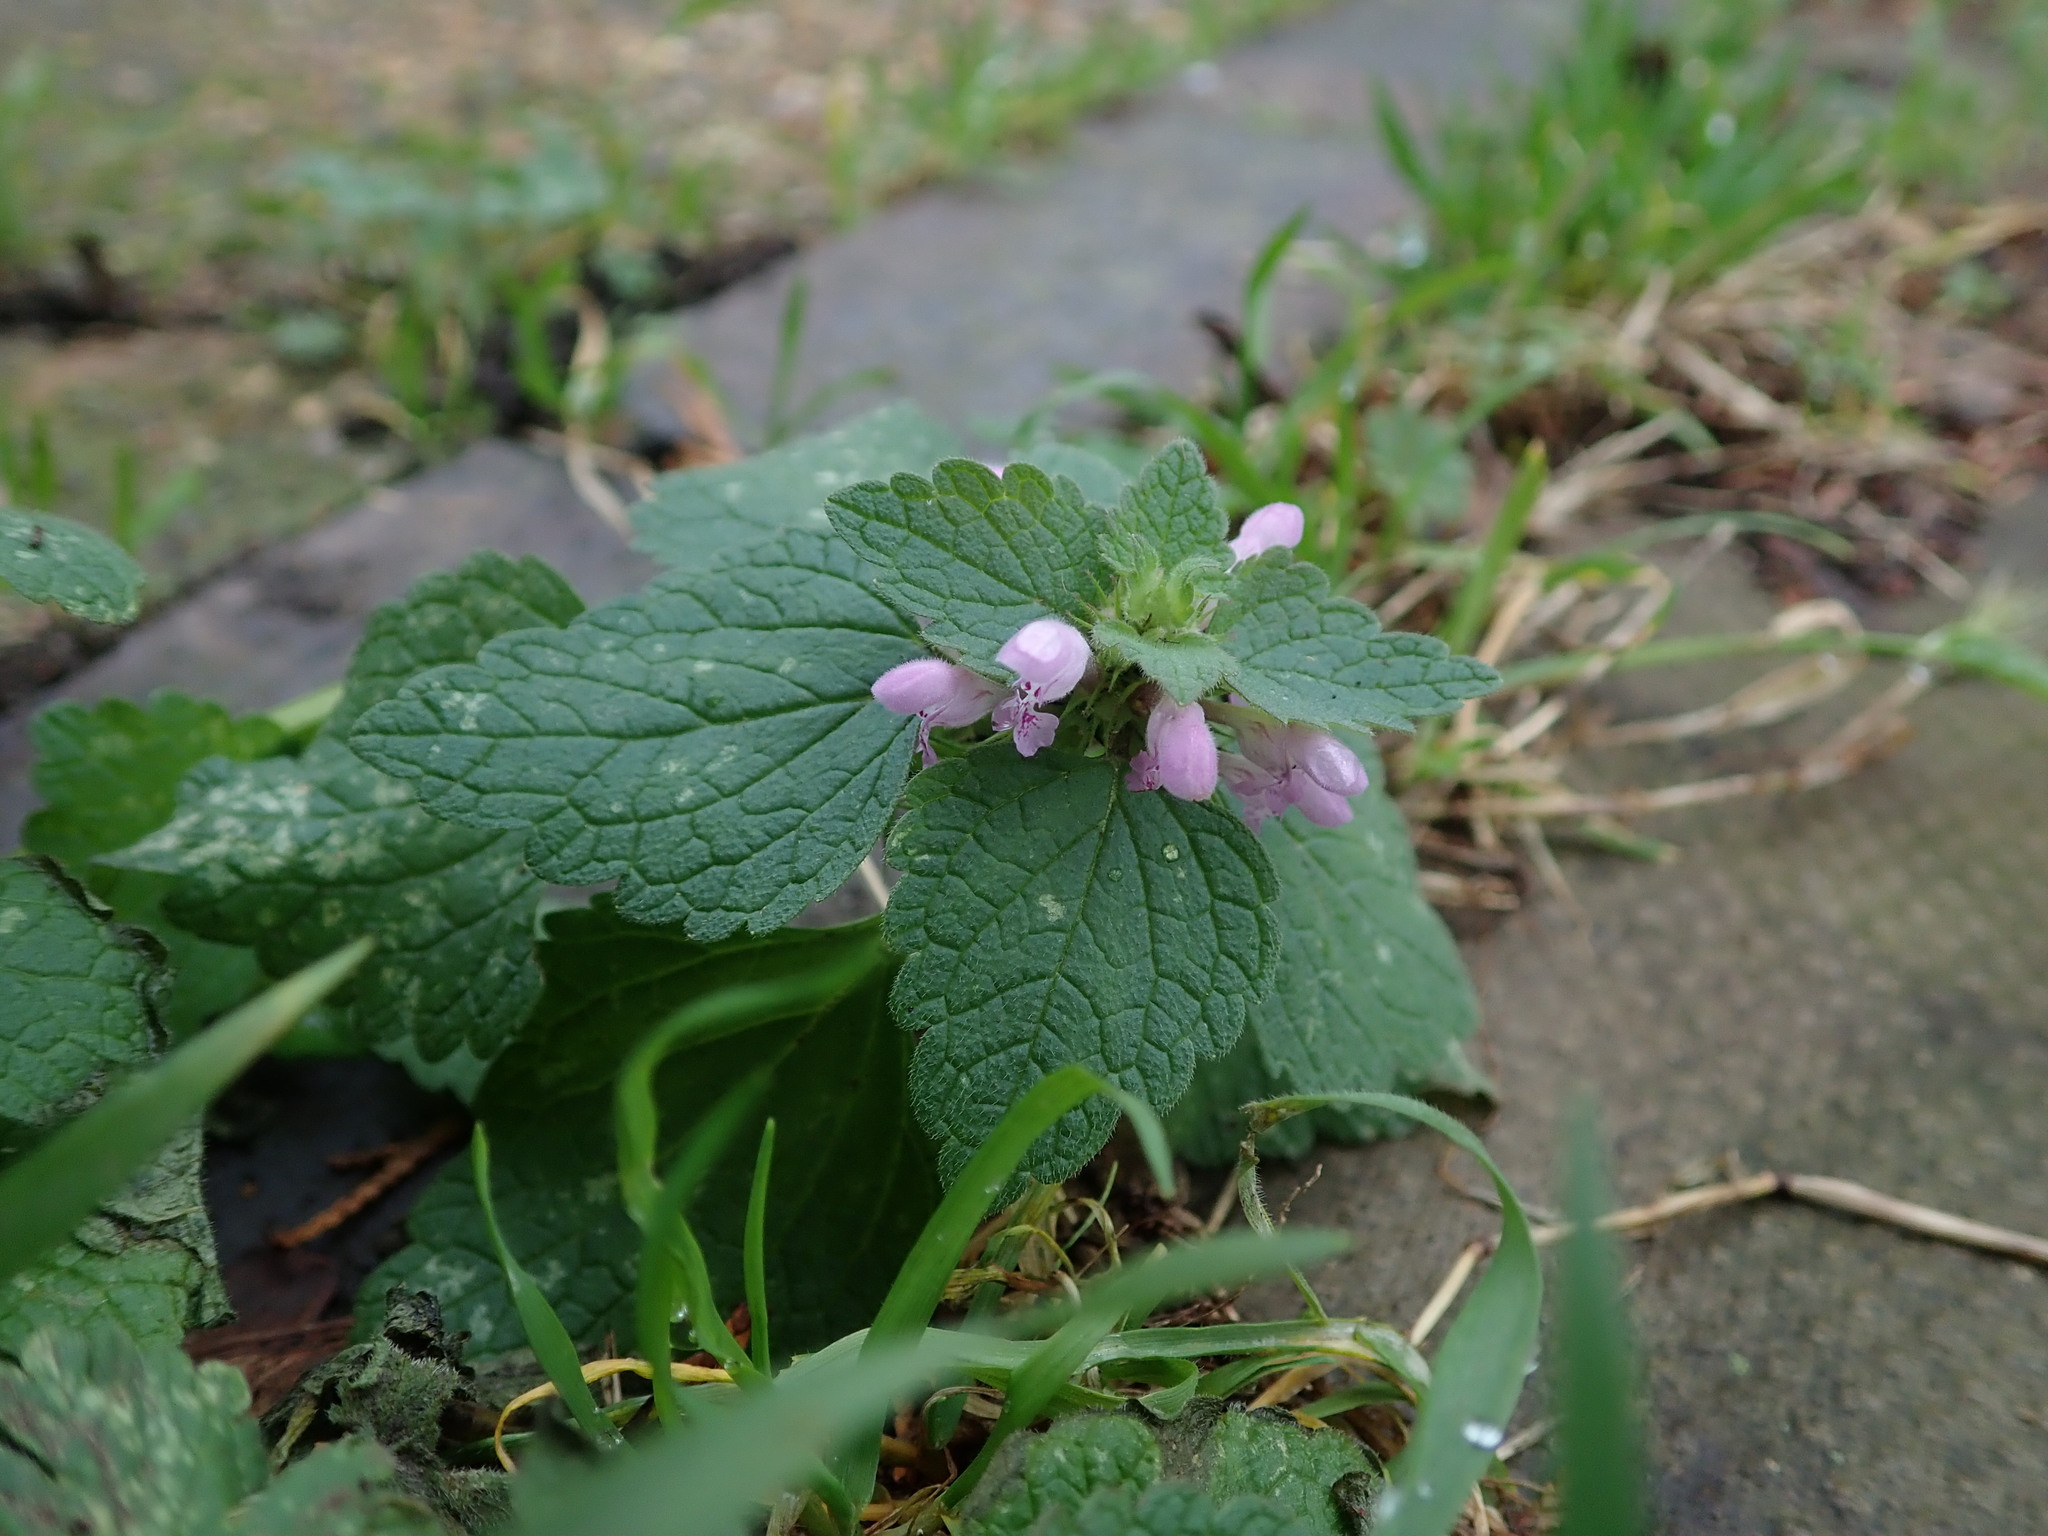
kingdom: Plantae
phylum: Tracheophyta
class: Magnoliopsida
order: Lamiales
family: Lamiaceae
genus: Lamium
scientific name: Lamium purpureum
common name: Red dead-nettle
